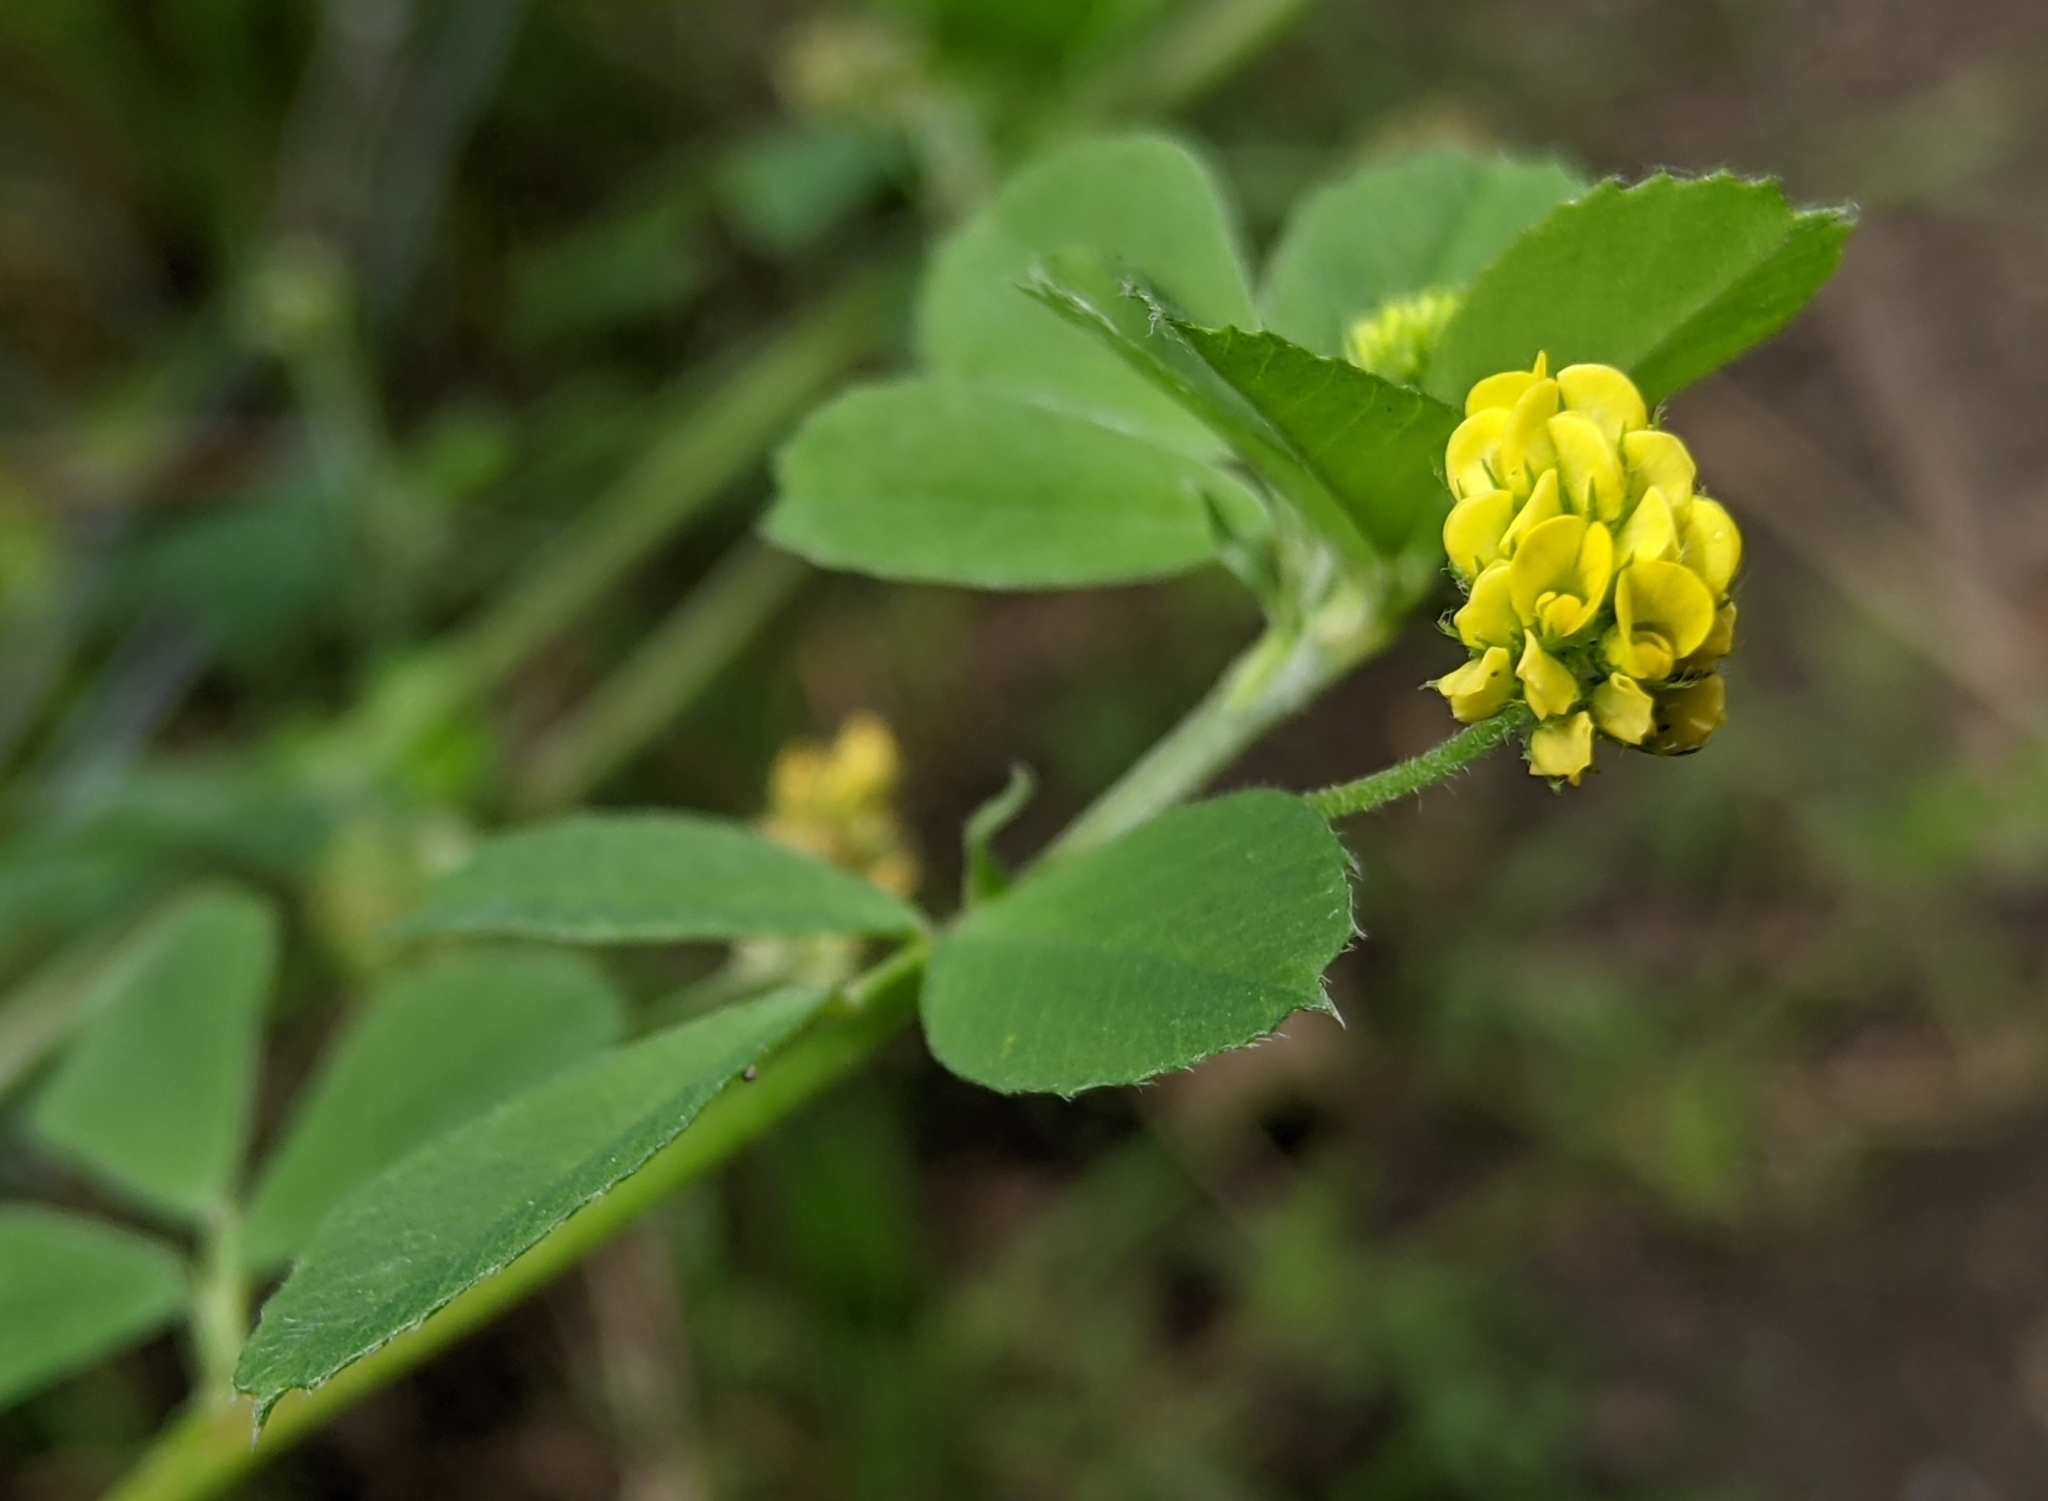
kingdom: Plantae
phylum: Tracheophyta
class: Magnoliopsida
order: Fabales
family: Fabaceae
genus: Medicago
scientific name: Medicago lupulina
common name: Black medick
